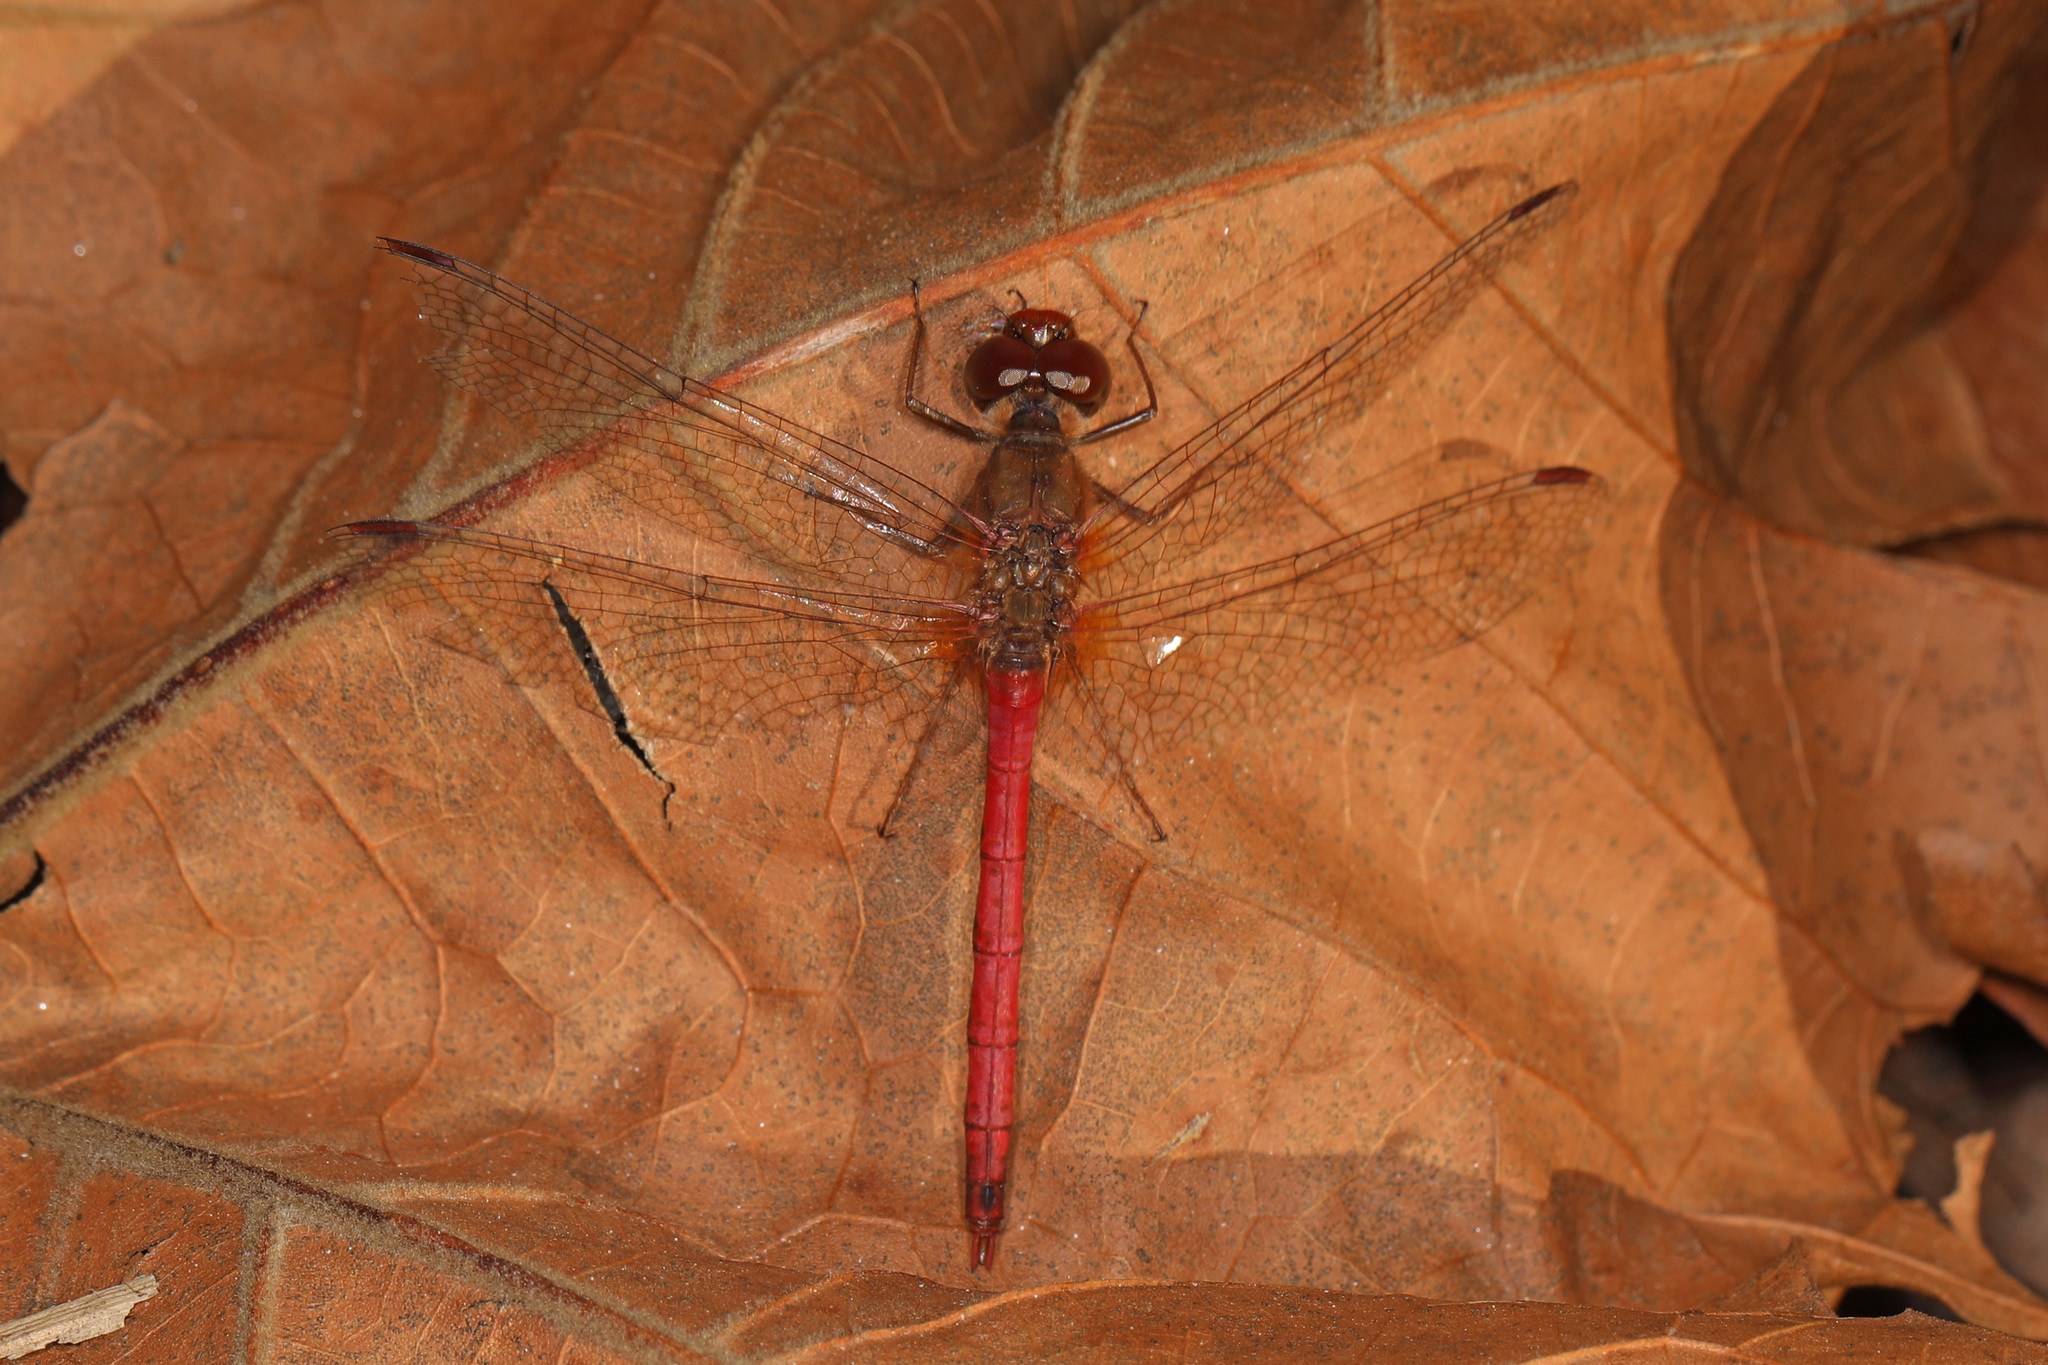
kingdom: Animalia
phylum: Arthropoda
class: Insecta
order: Odonata
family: Libellulidae
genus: Sympetrum
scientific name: Sympetrum vicinum
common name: Autumn meadowhawk
